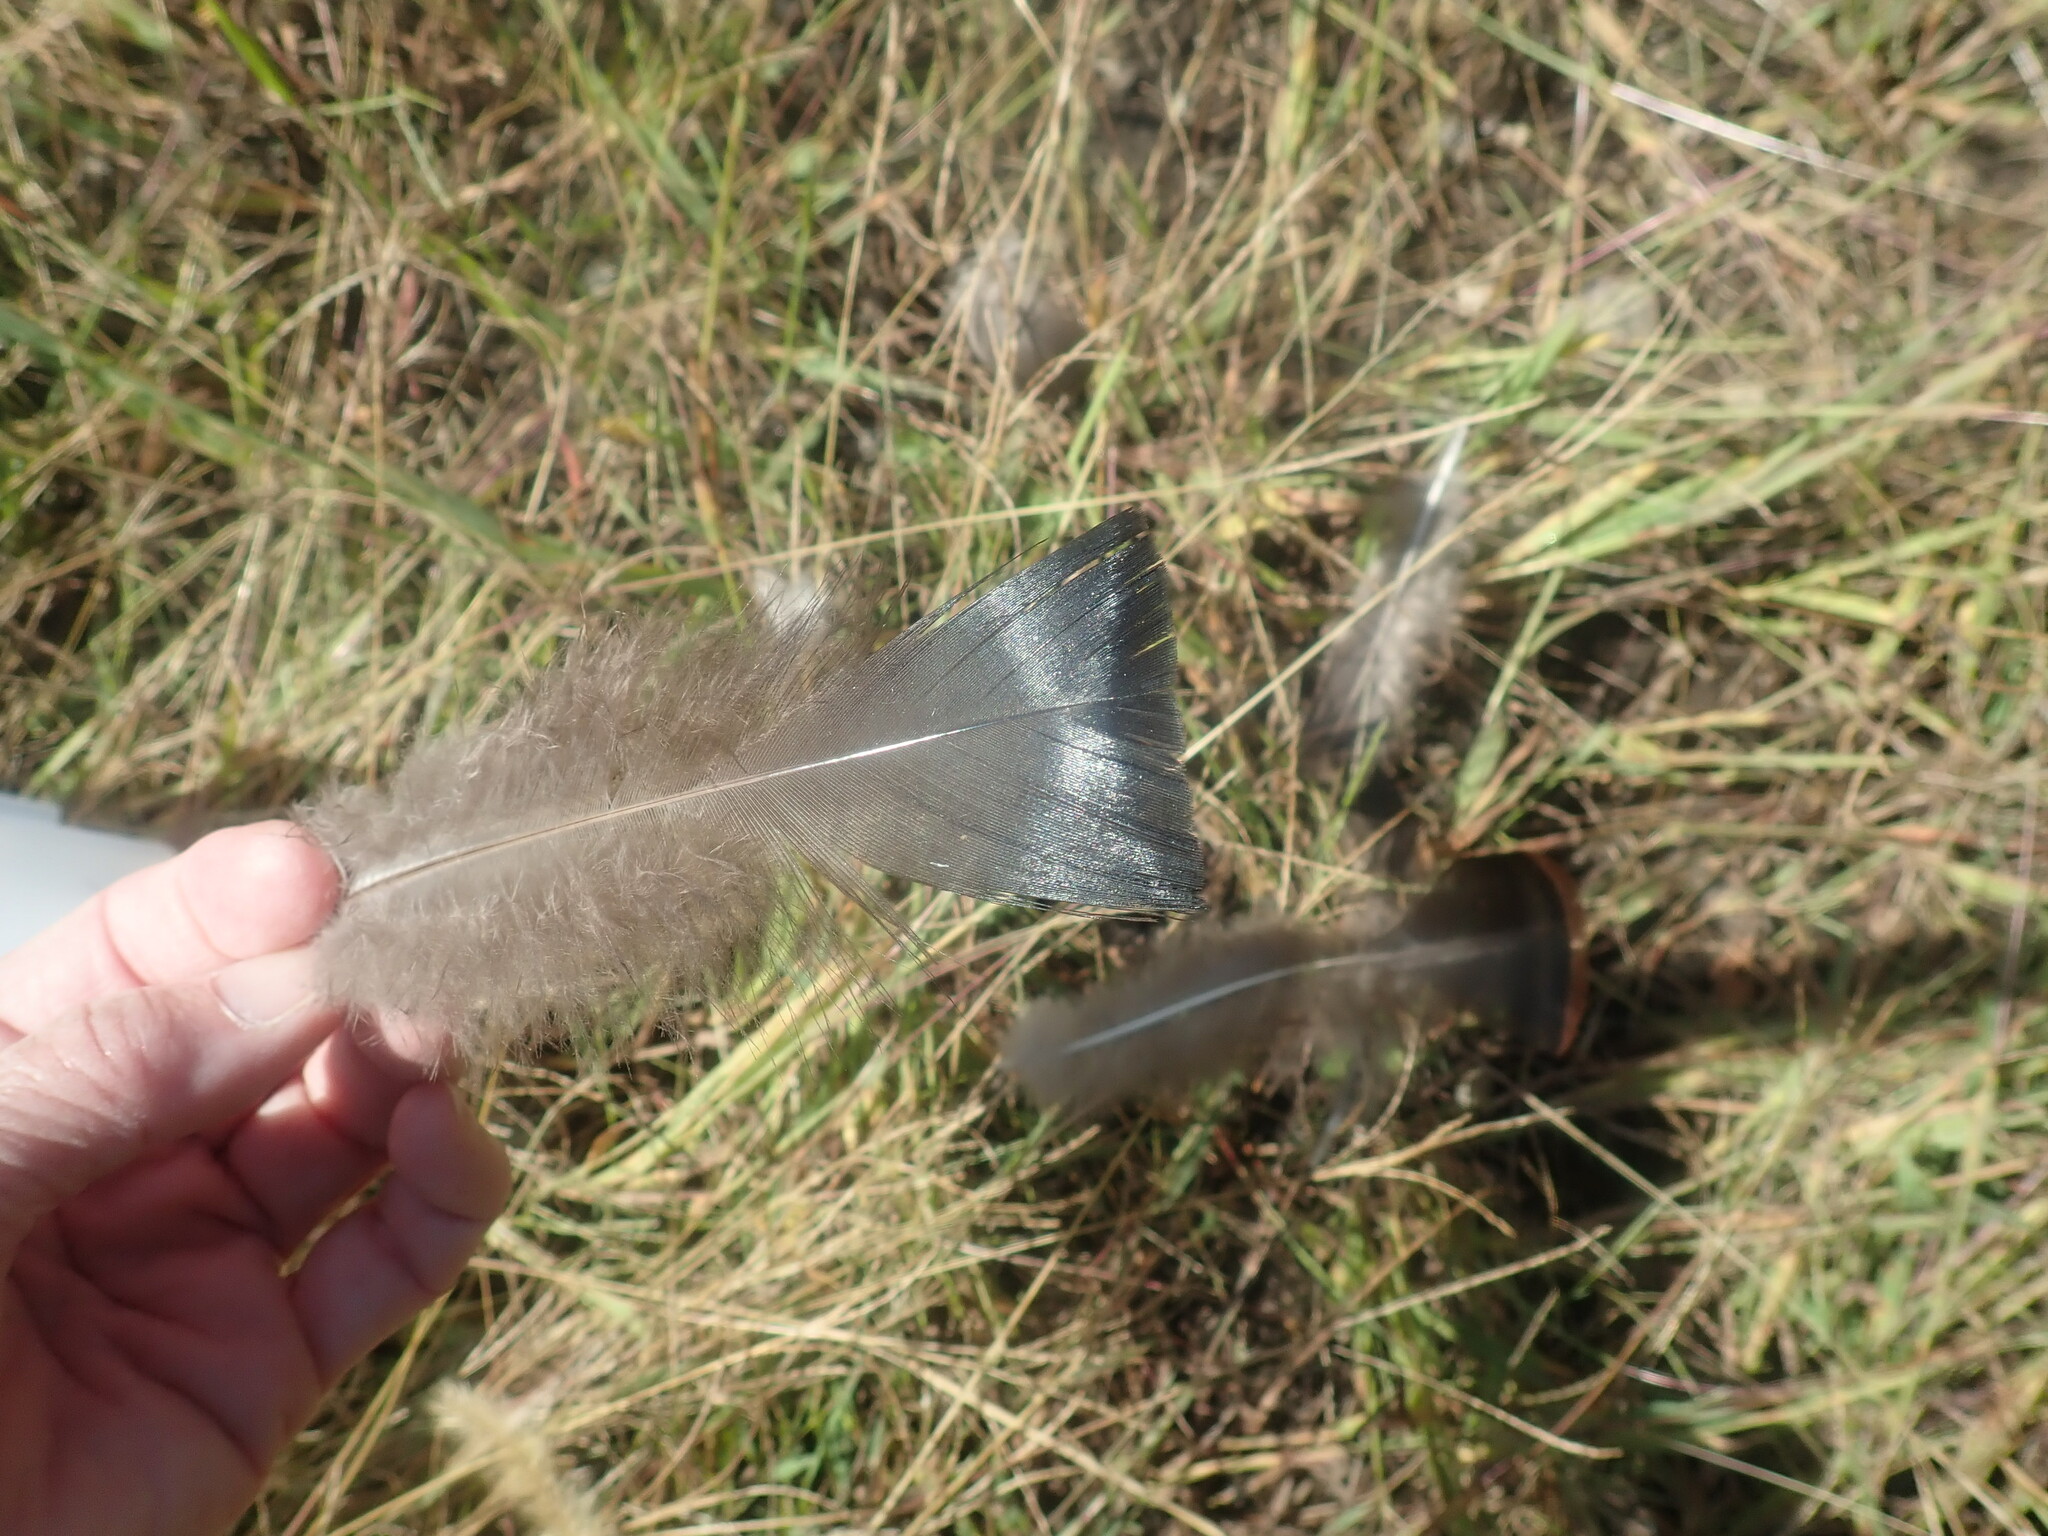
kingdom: Animalia
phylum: Chordata
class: Aves
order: Galliformes
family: Phasianidae
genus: Meleagris
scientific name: Meleagris gallopavo
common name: Wild turkey
